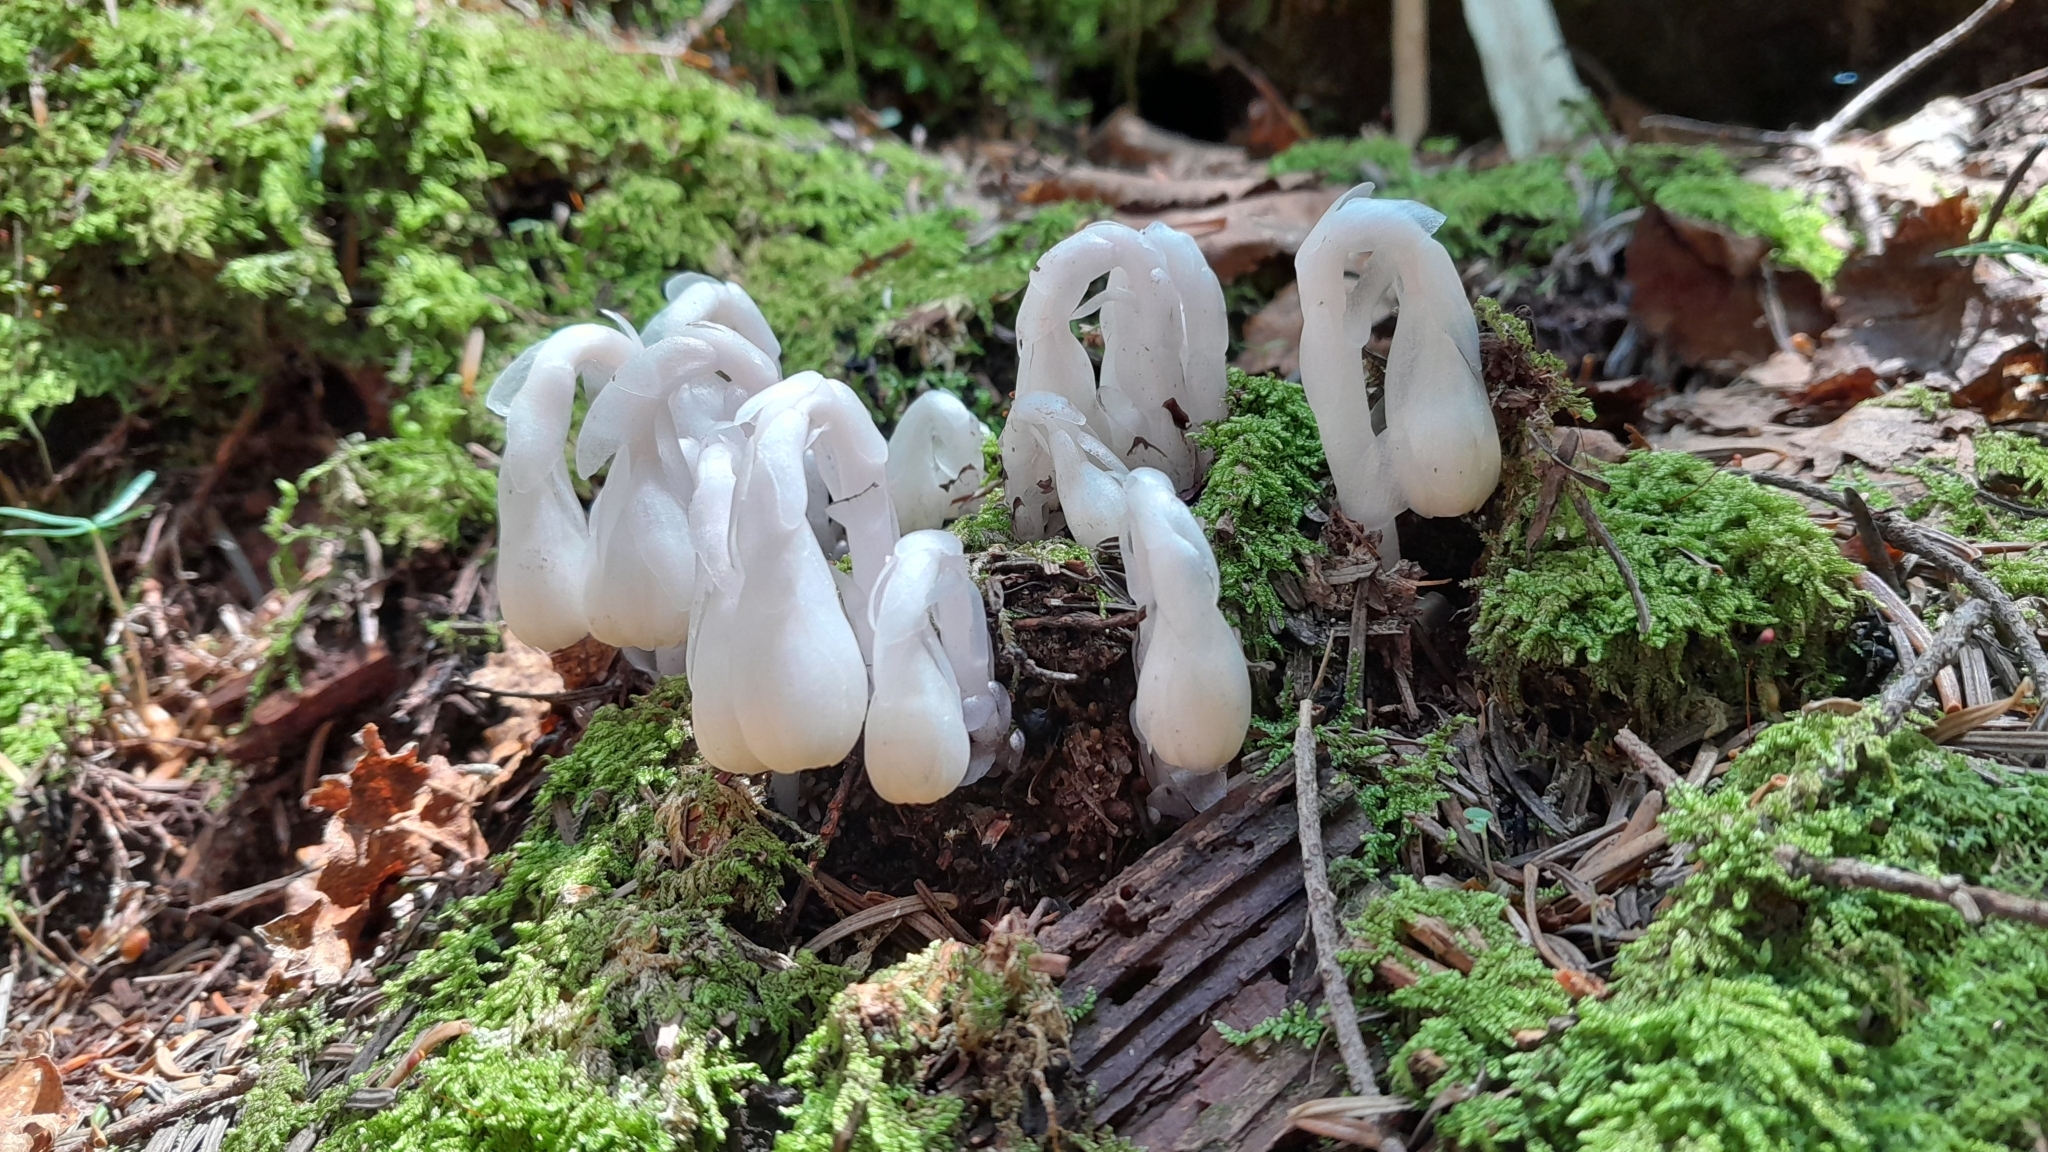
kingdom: Plantae
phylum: Tracheophyta
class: Magnoliopsida
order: Ericales
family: Ericaceae
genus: Monotropa
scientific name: Monotropa uniflora
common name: Convulsion root
